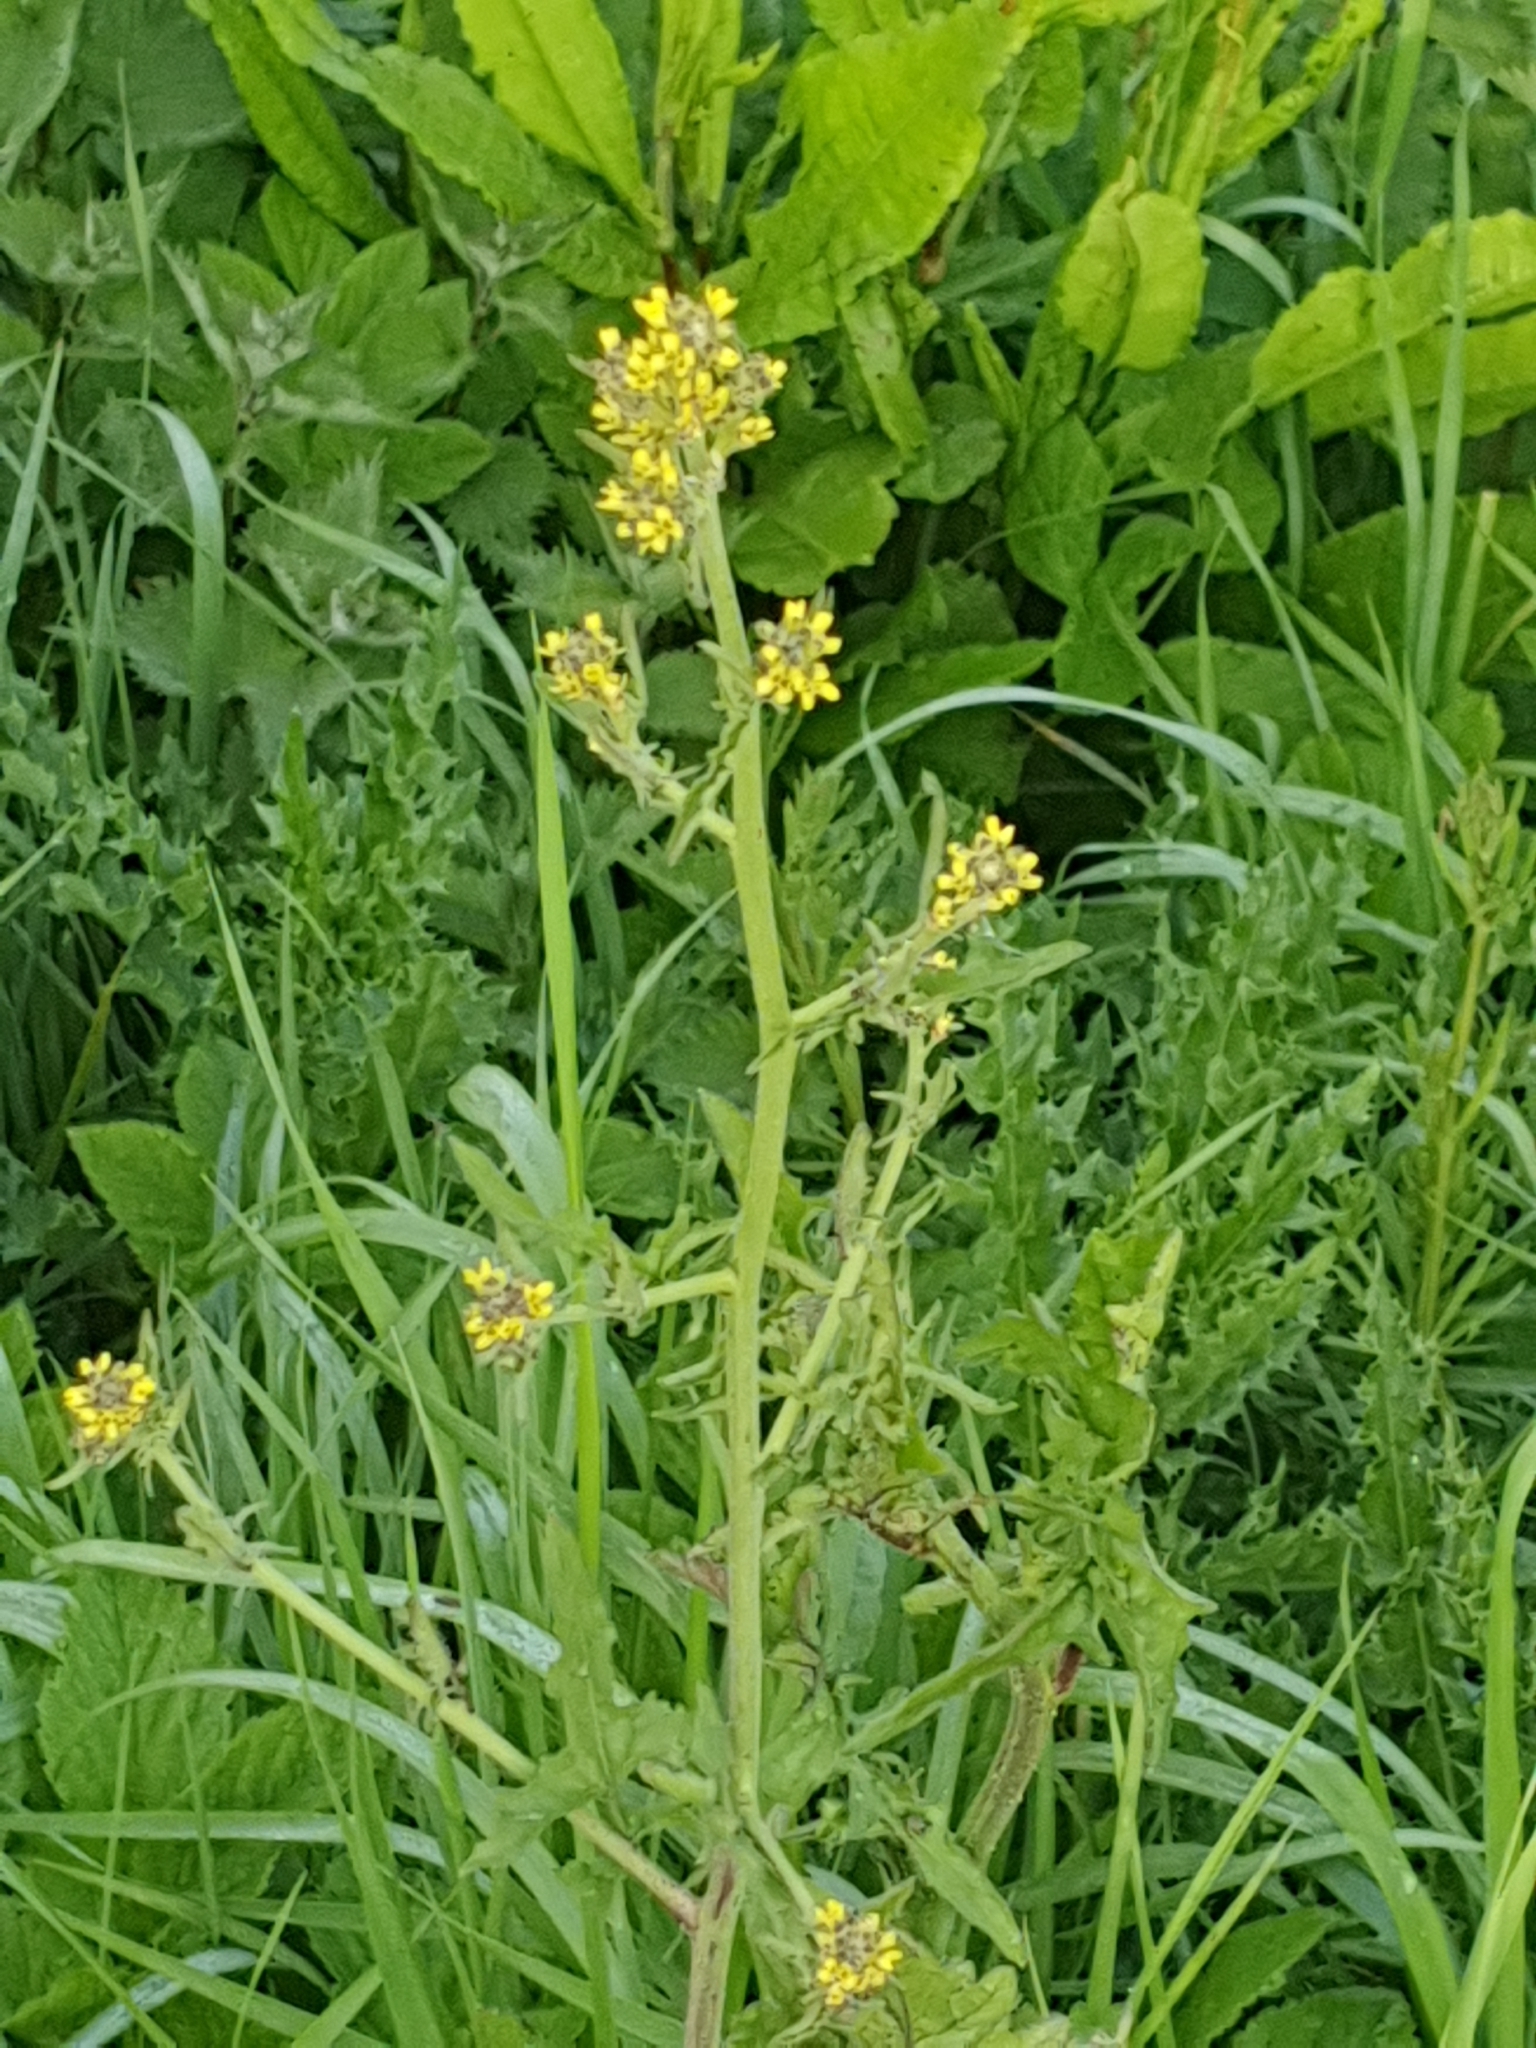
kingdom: Plantae
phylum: Tracheophyta
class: Magnoliopsida
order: Brassicales
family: Brassicaceae
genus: Sisymbrium
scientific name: Sisymbrium officinale
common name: Hedge mustard
